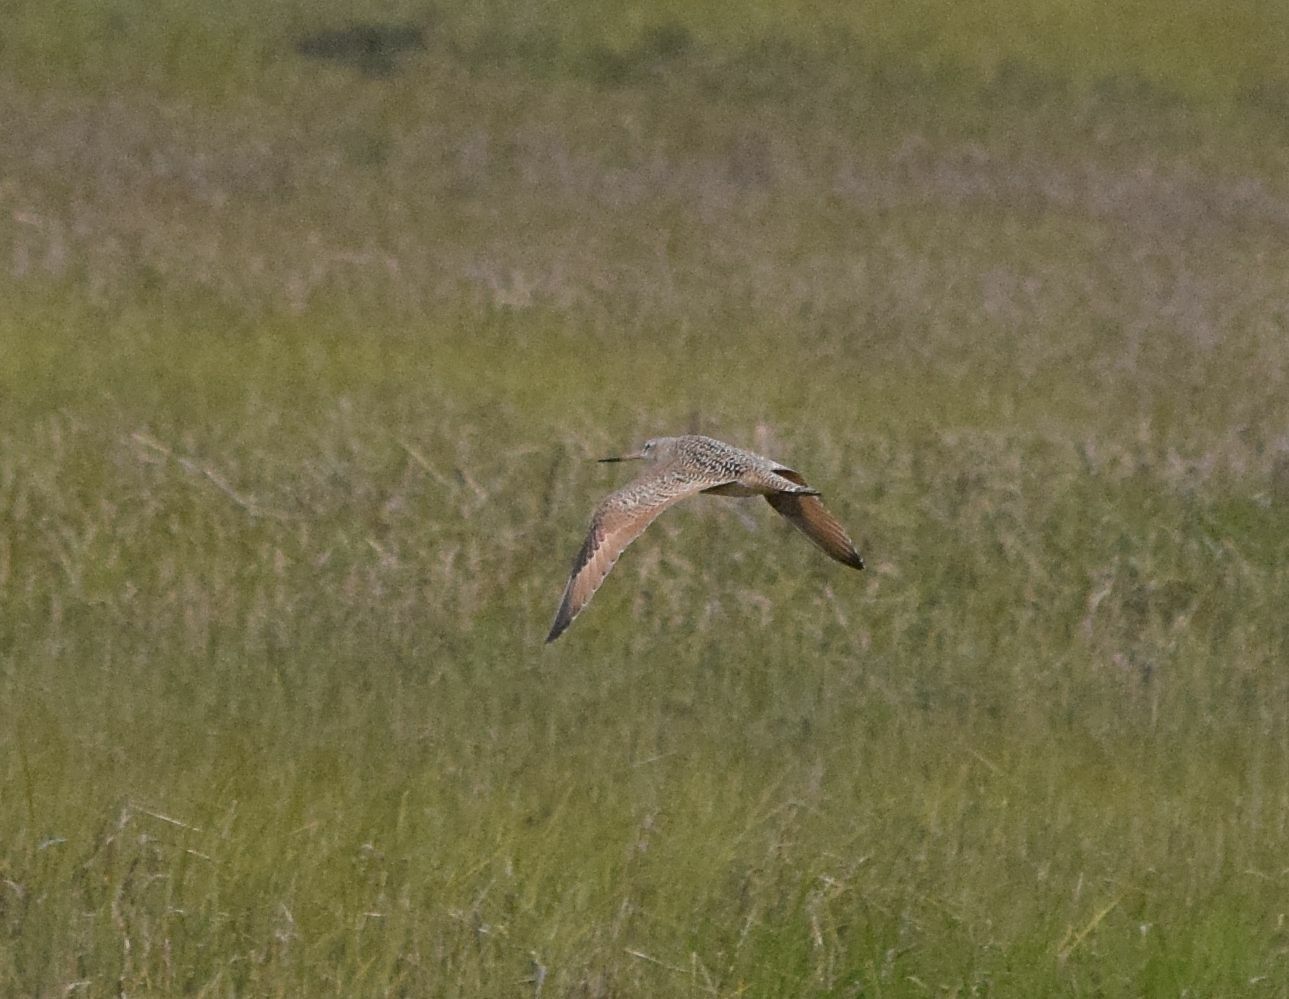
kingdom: Animalia
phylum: Chordata
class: Aves
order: Charadriiformes
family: Scolopacidae
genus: Limosa
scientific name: Limosa fedoa
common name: Marbled godwit
